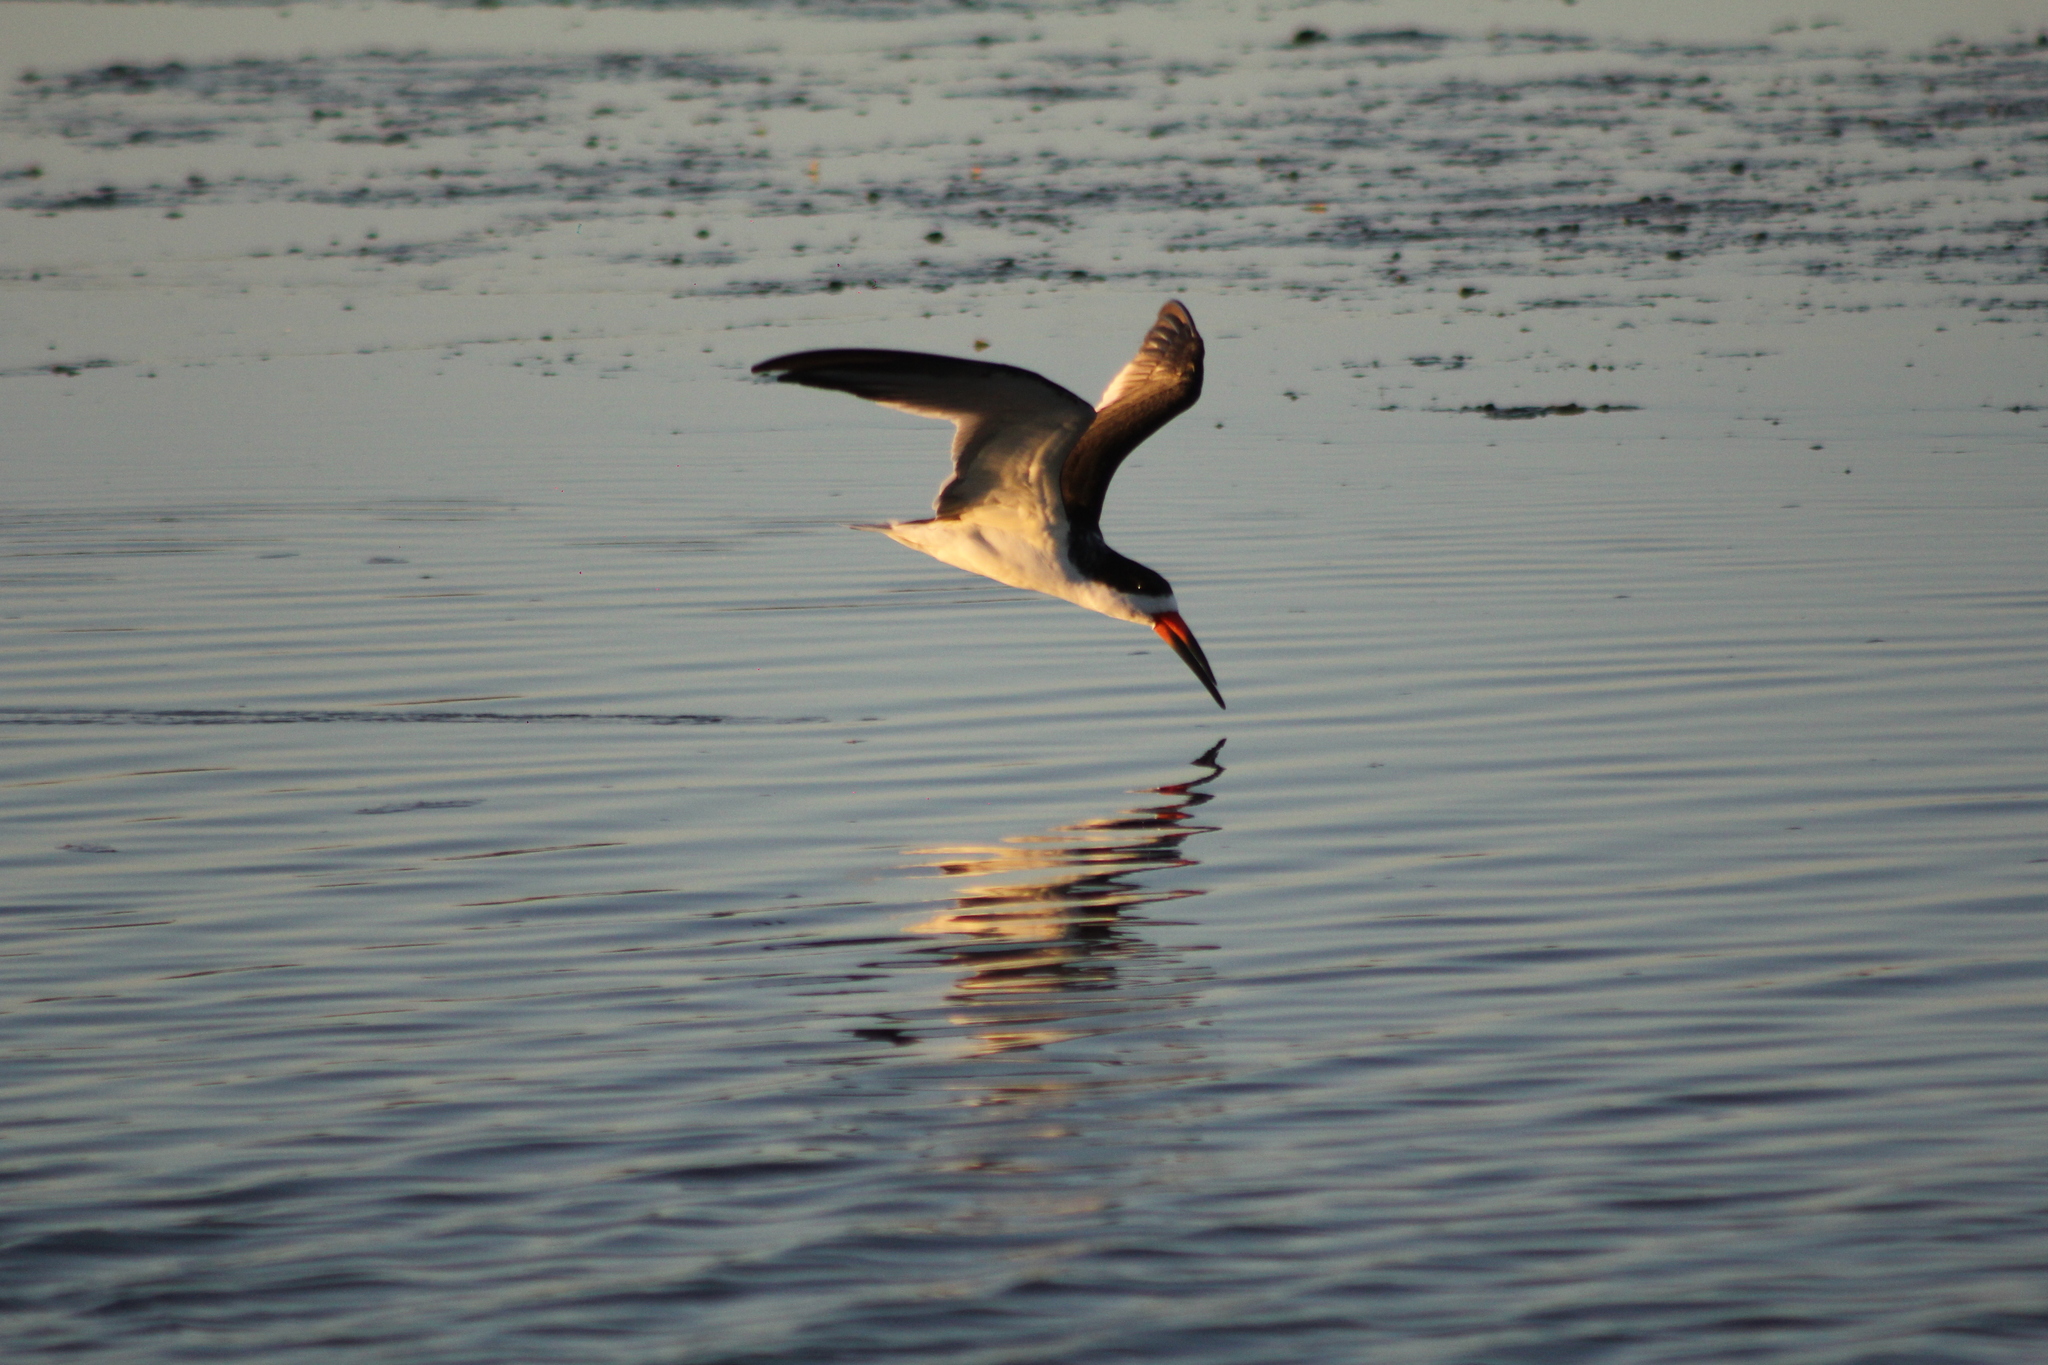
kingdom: Animalia
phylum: Chordata
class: Aves
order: Charadriiformes
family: Laridae
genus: Rynchops
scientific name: Rynchops niger
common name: Black skimmer
